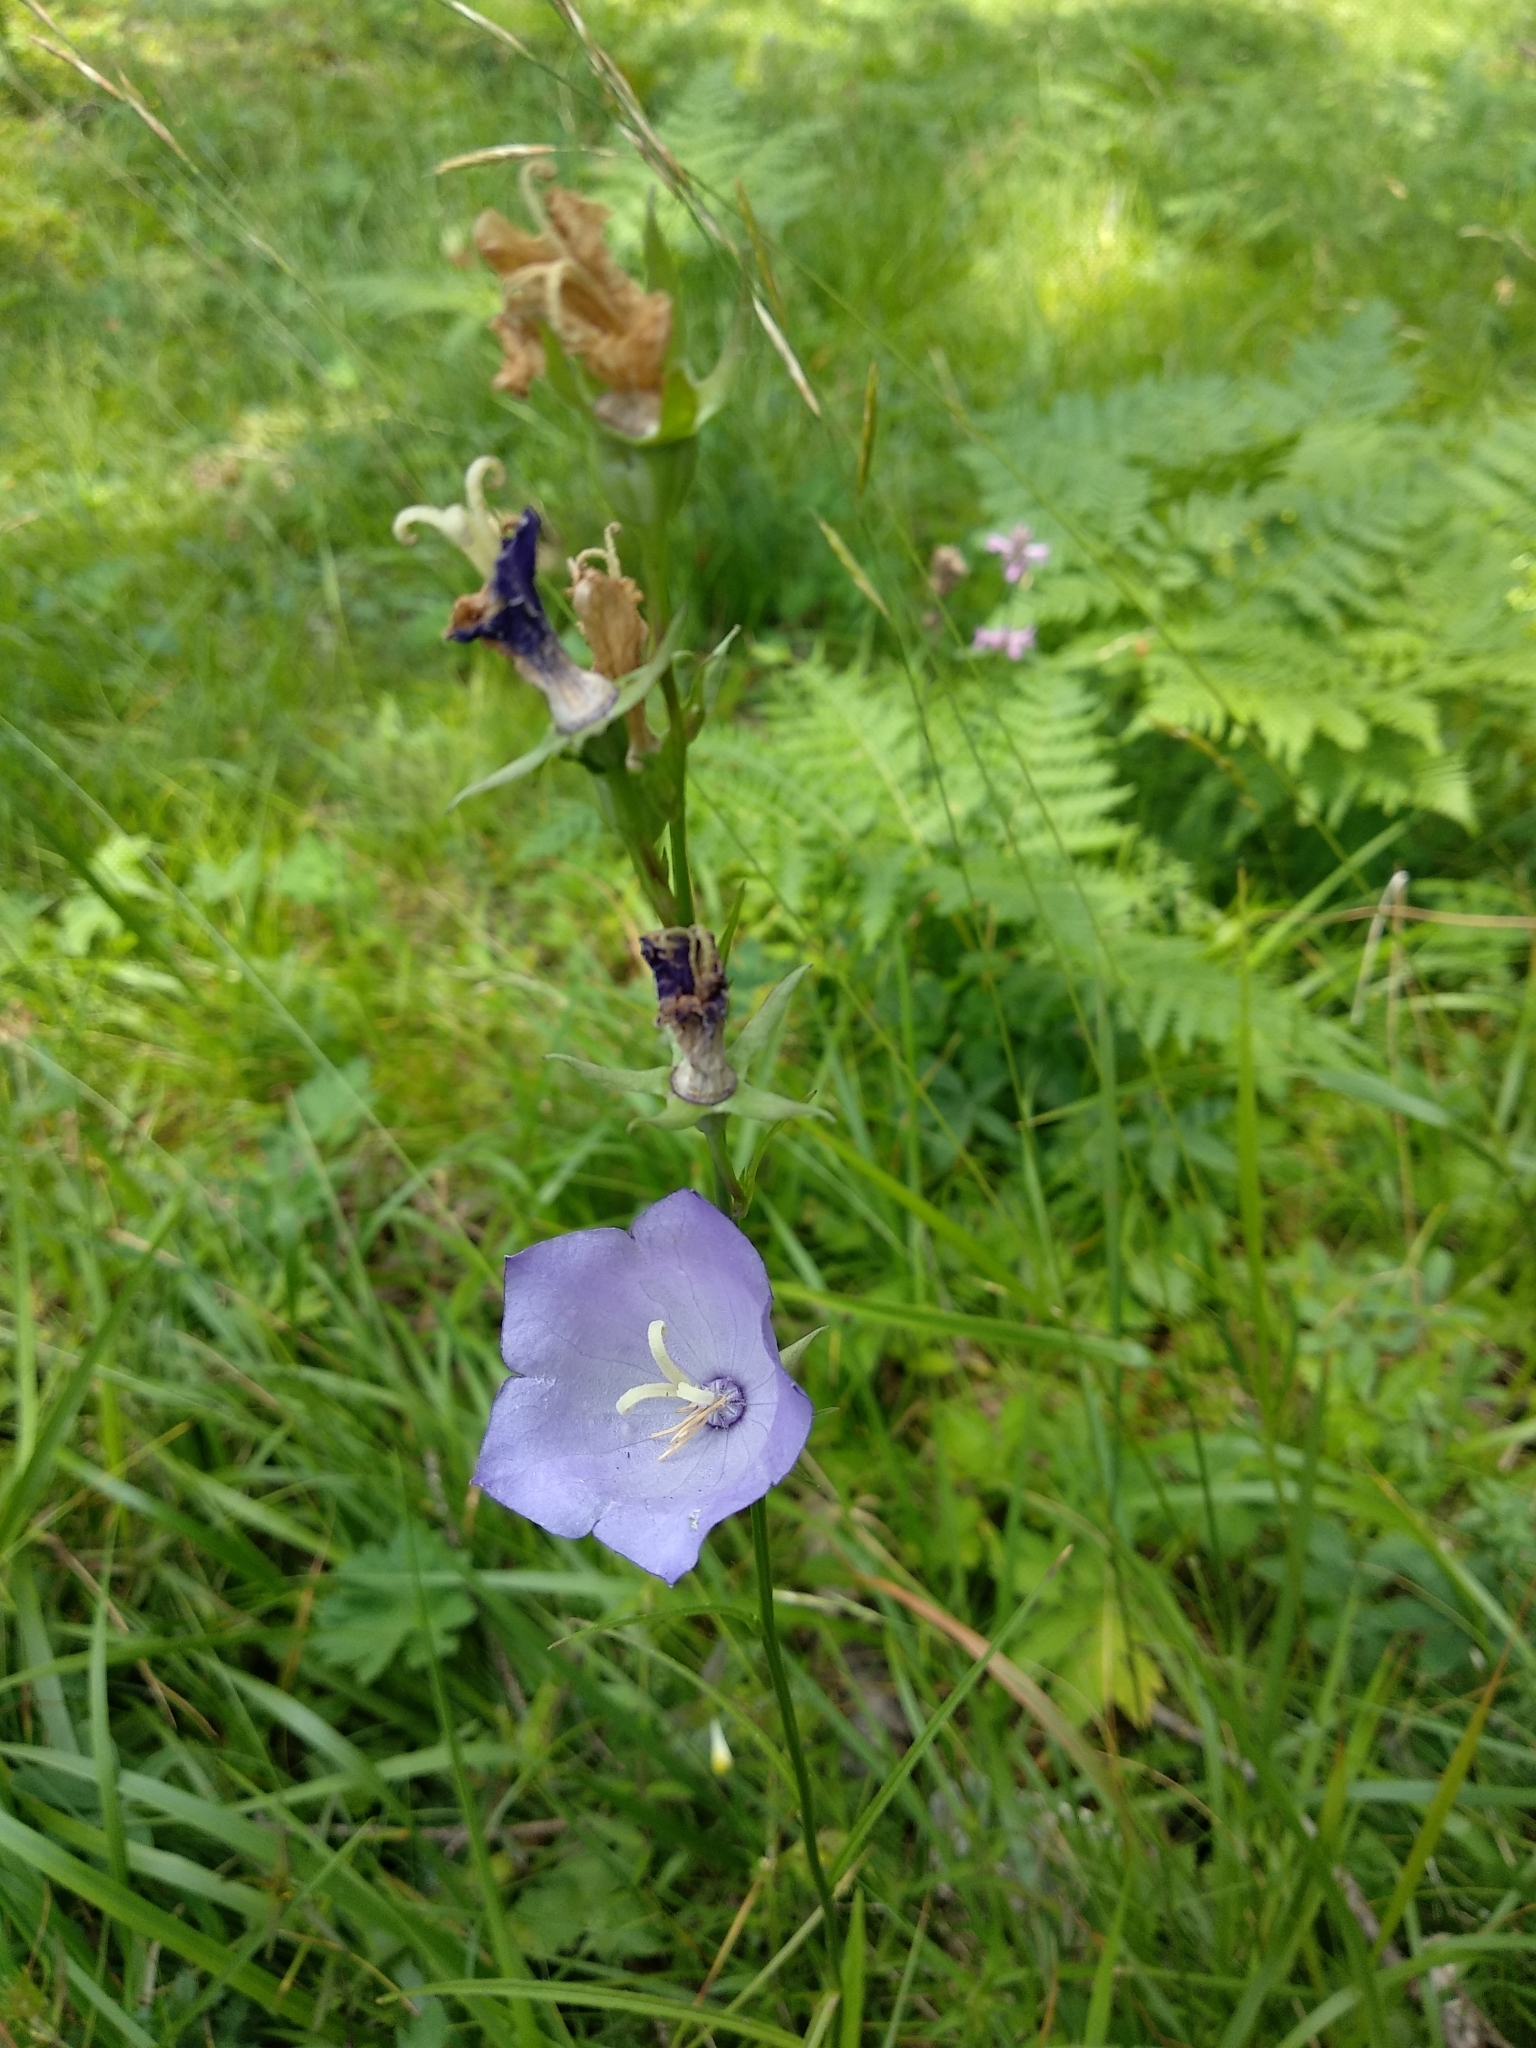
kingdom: Plantae
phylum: Tracheophyta
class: Magnoliopsida
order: Asterales
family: Campanulaceae
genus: Campanula
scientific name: Campanula persicifolia
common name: Peach-leaved bellflower
